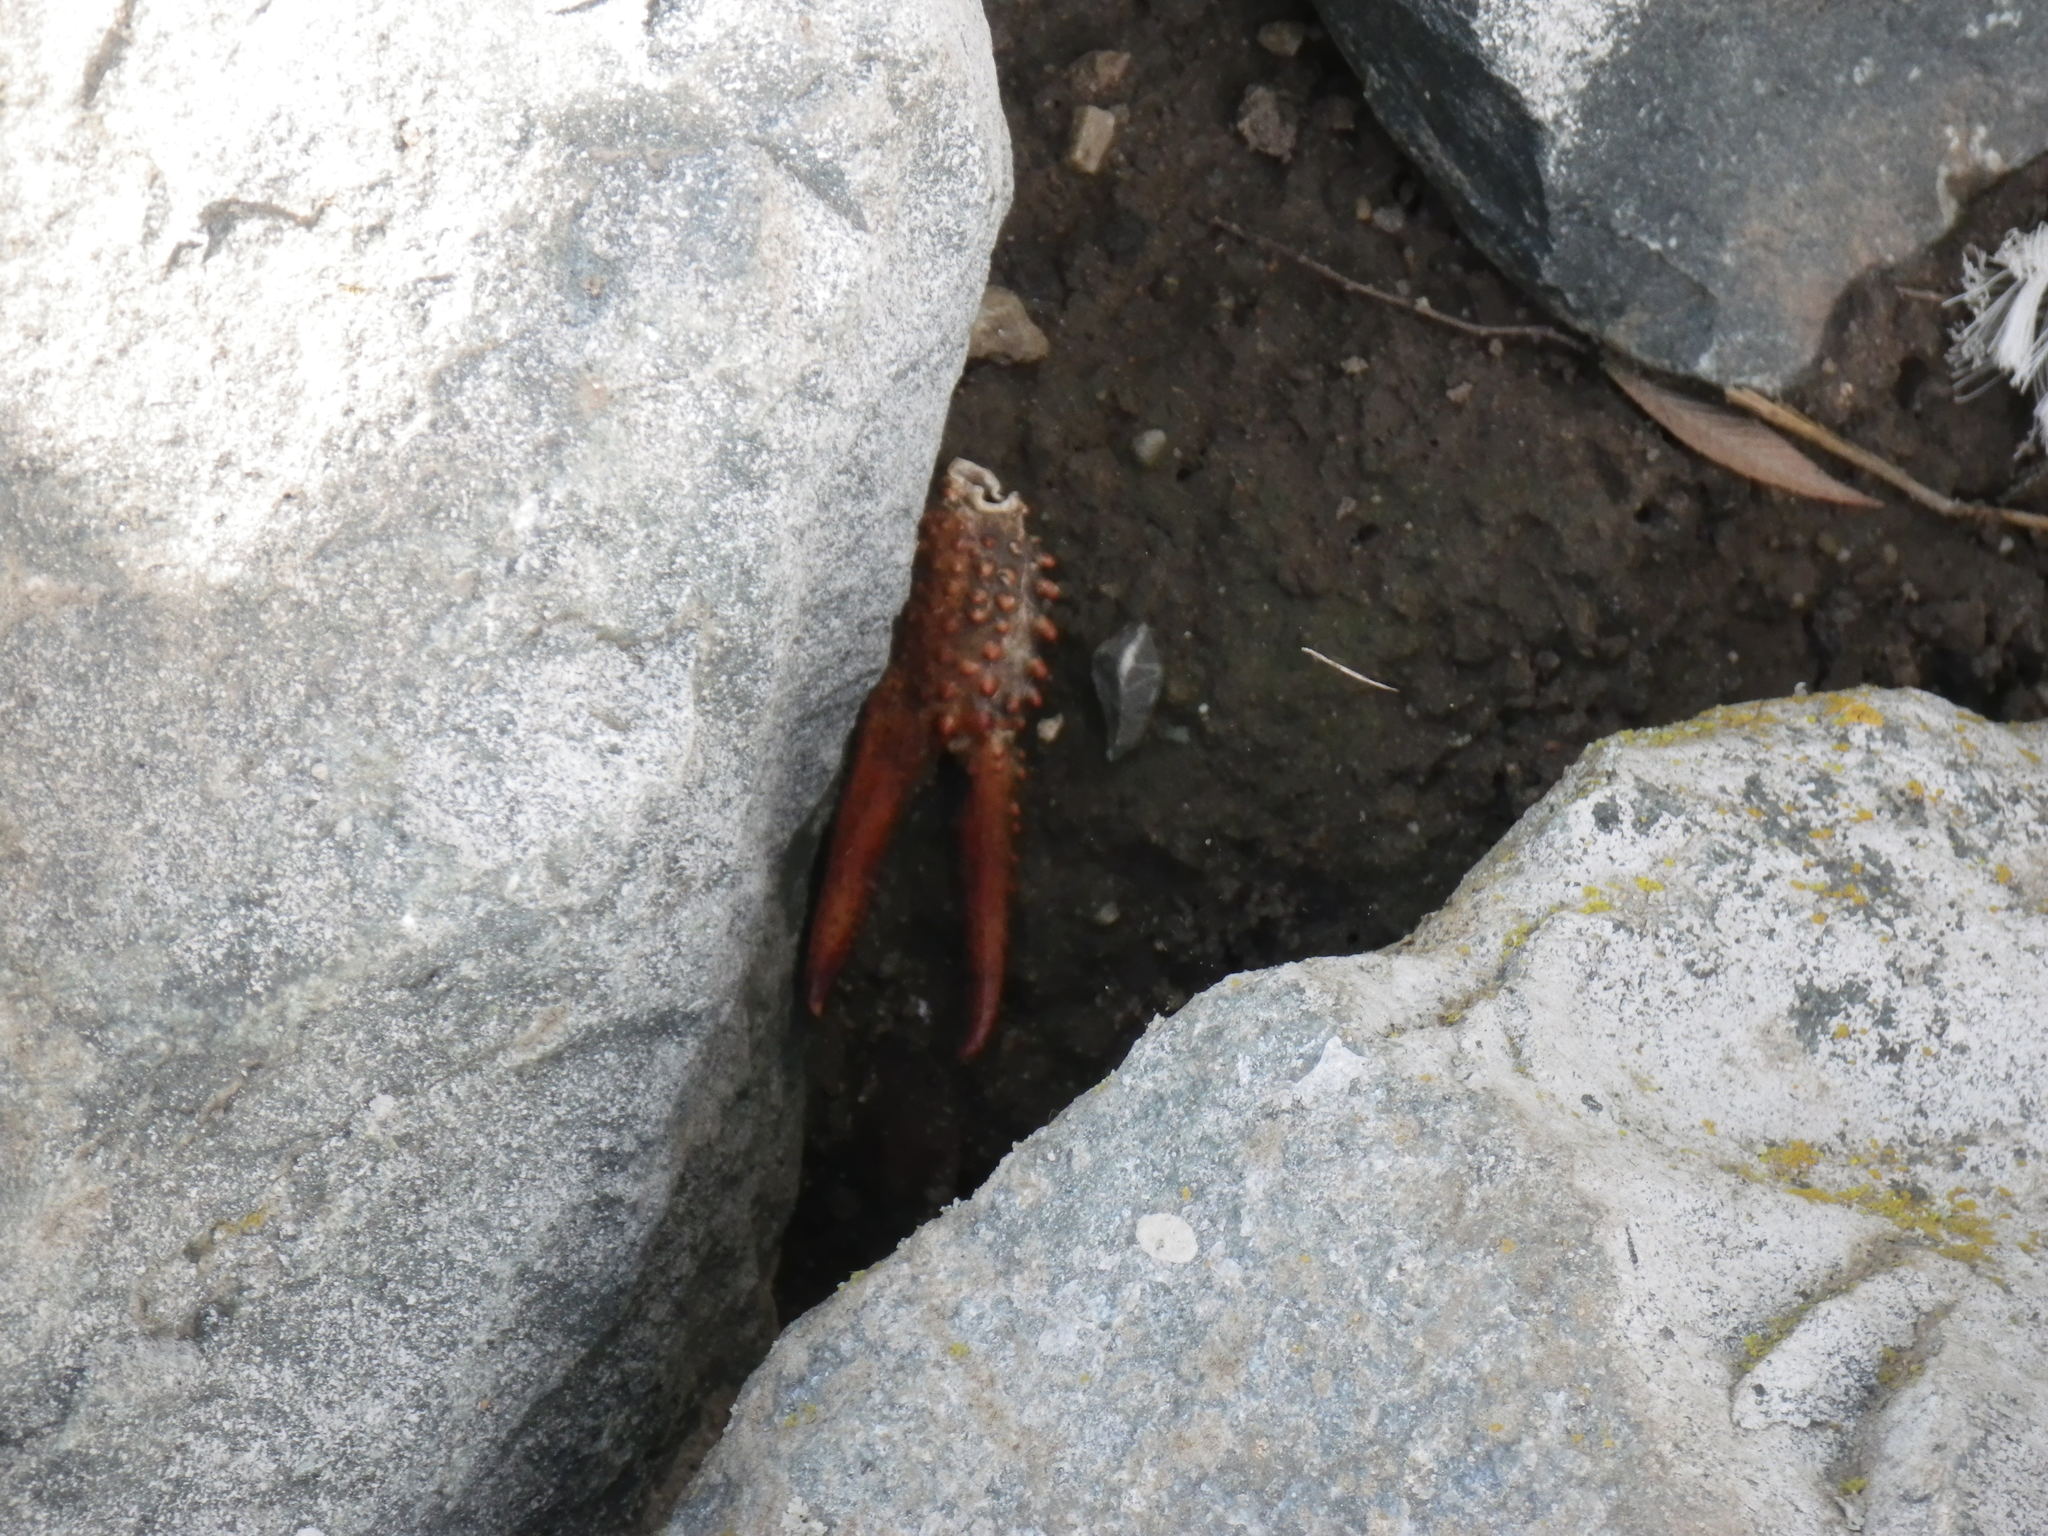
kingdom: Animalia
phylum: Arthropoda
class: Malacostraca
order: Decapoda
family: Cambaridae
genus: Procambarus
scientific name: Procambarus clarkii
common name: Red swamp crayfish
